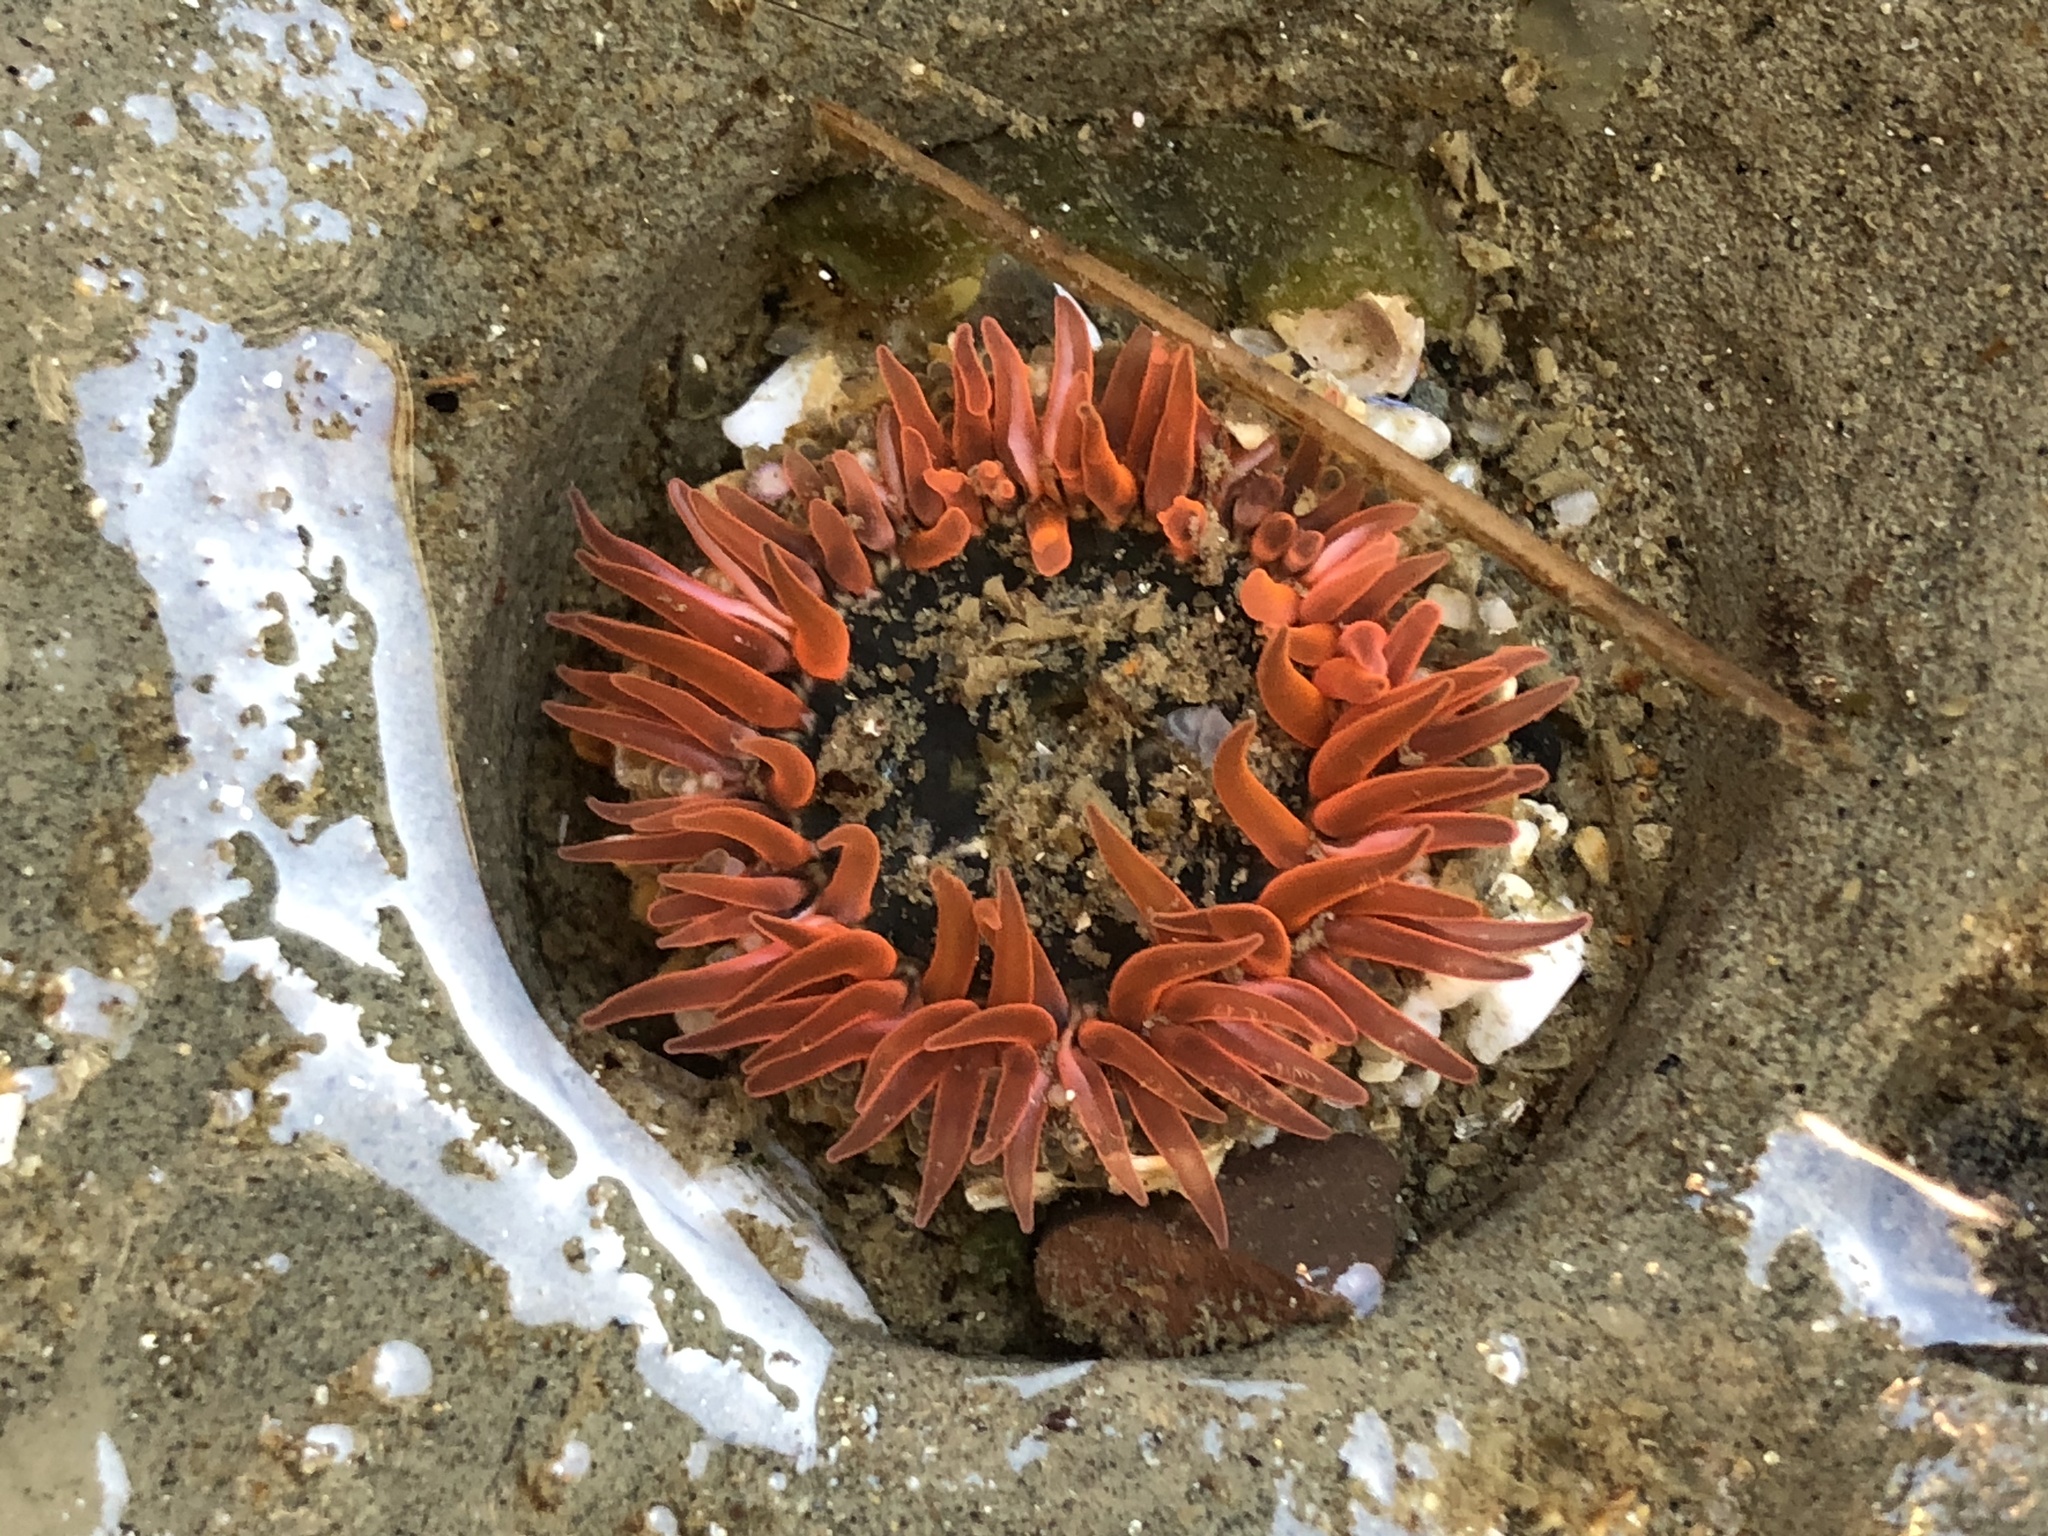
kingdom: Animalia
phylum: Cnidaria
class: Anthozoa
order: Actiniaria
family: Actiniidae
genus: Anthopleura
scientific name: Anthopleura artemisia
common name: Buried sea anemone
